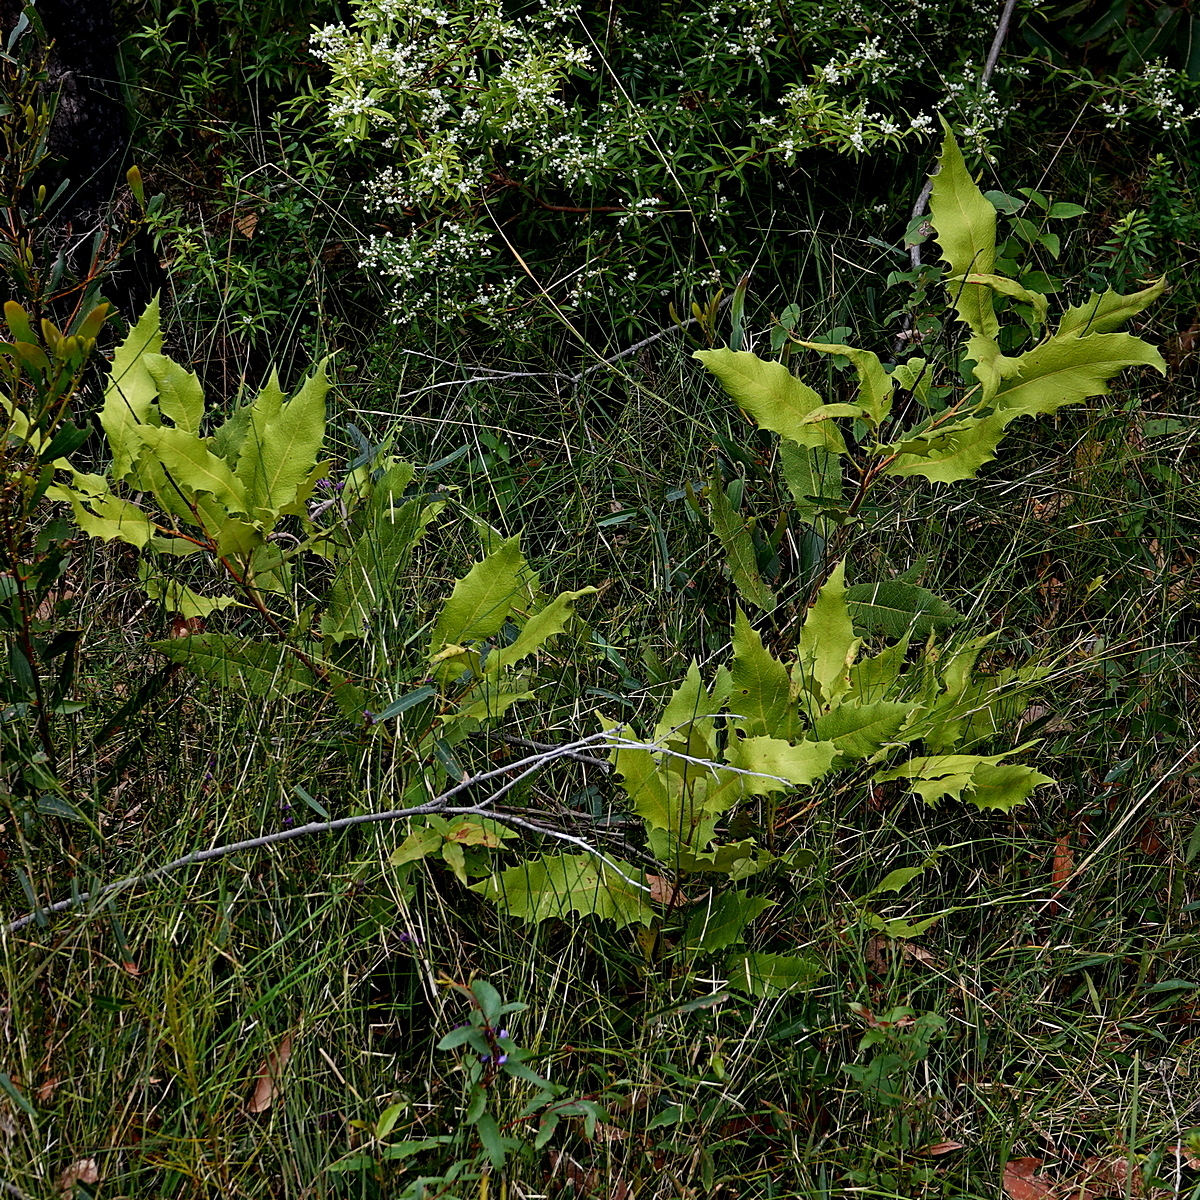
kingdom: Plantae
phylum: Tracheophyta
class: Magnoliopsida
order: Proteales
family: Proteaceae
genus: Lomatia
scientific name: Lomatia ilicifolia
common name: Native-holly
